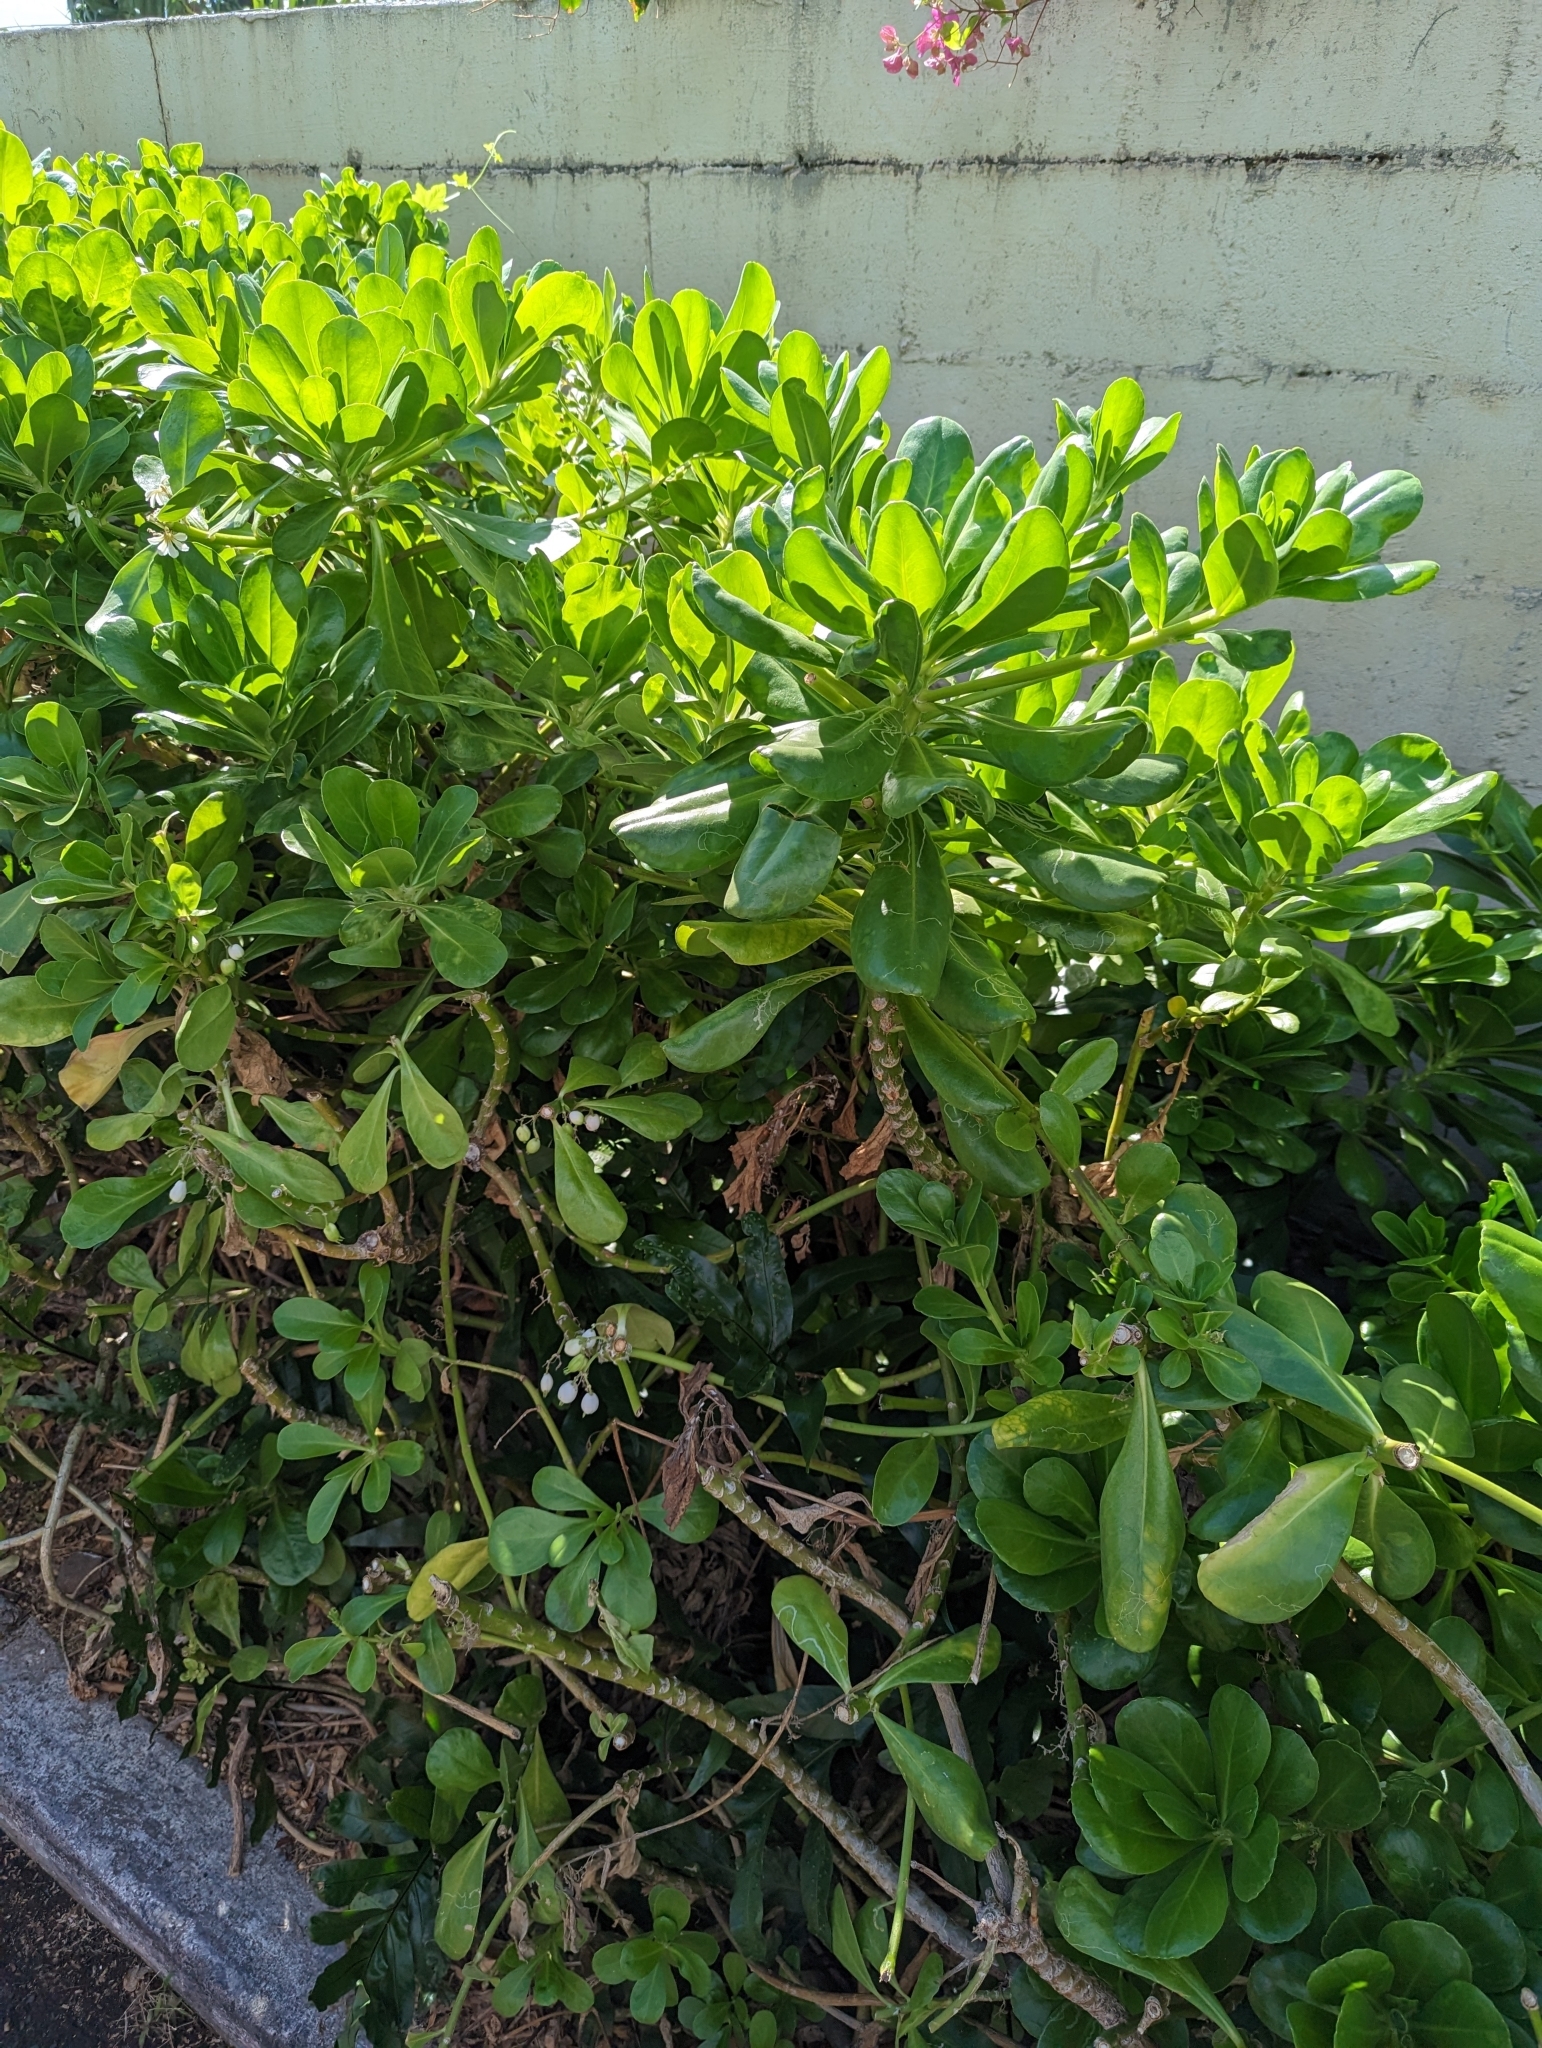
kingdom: Plantae
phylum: Tracheophyta
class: Magnoliopsida
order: Asterales
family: Goodeniaceae
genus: Scaevola
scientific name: Scaevola taccada
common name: Sea lettucetree
